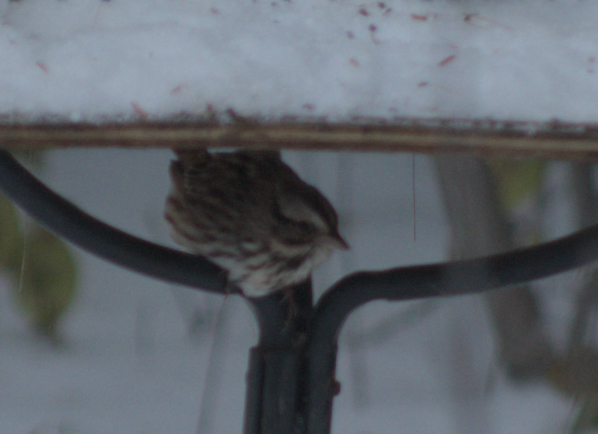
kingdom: Animalia
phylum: Chordata
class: Aves
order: Passeriformes
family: Passerellidae
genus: Melospiza
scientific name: Melospiza melodia
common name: Song sparrow
